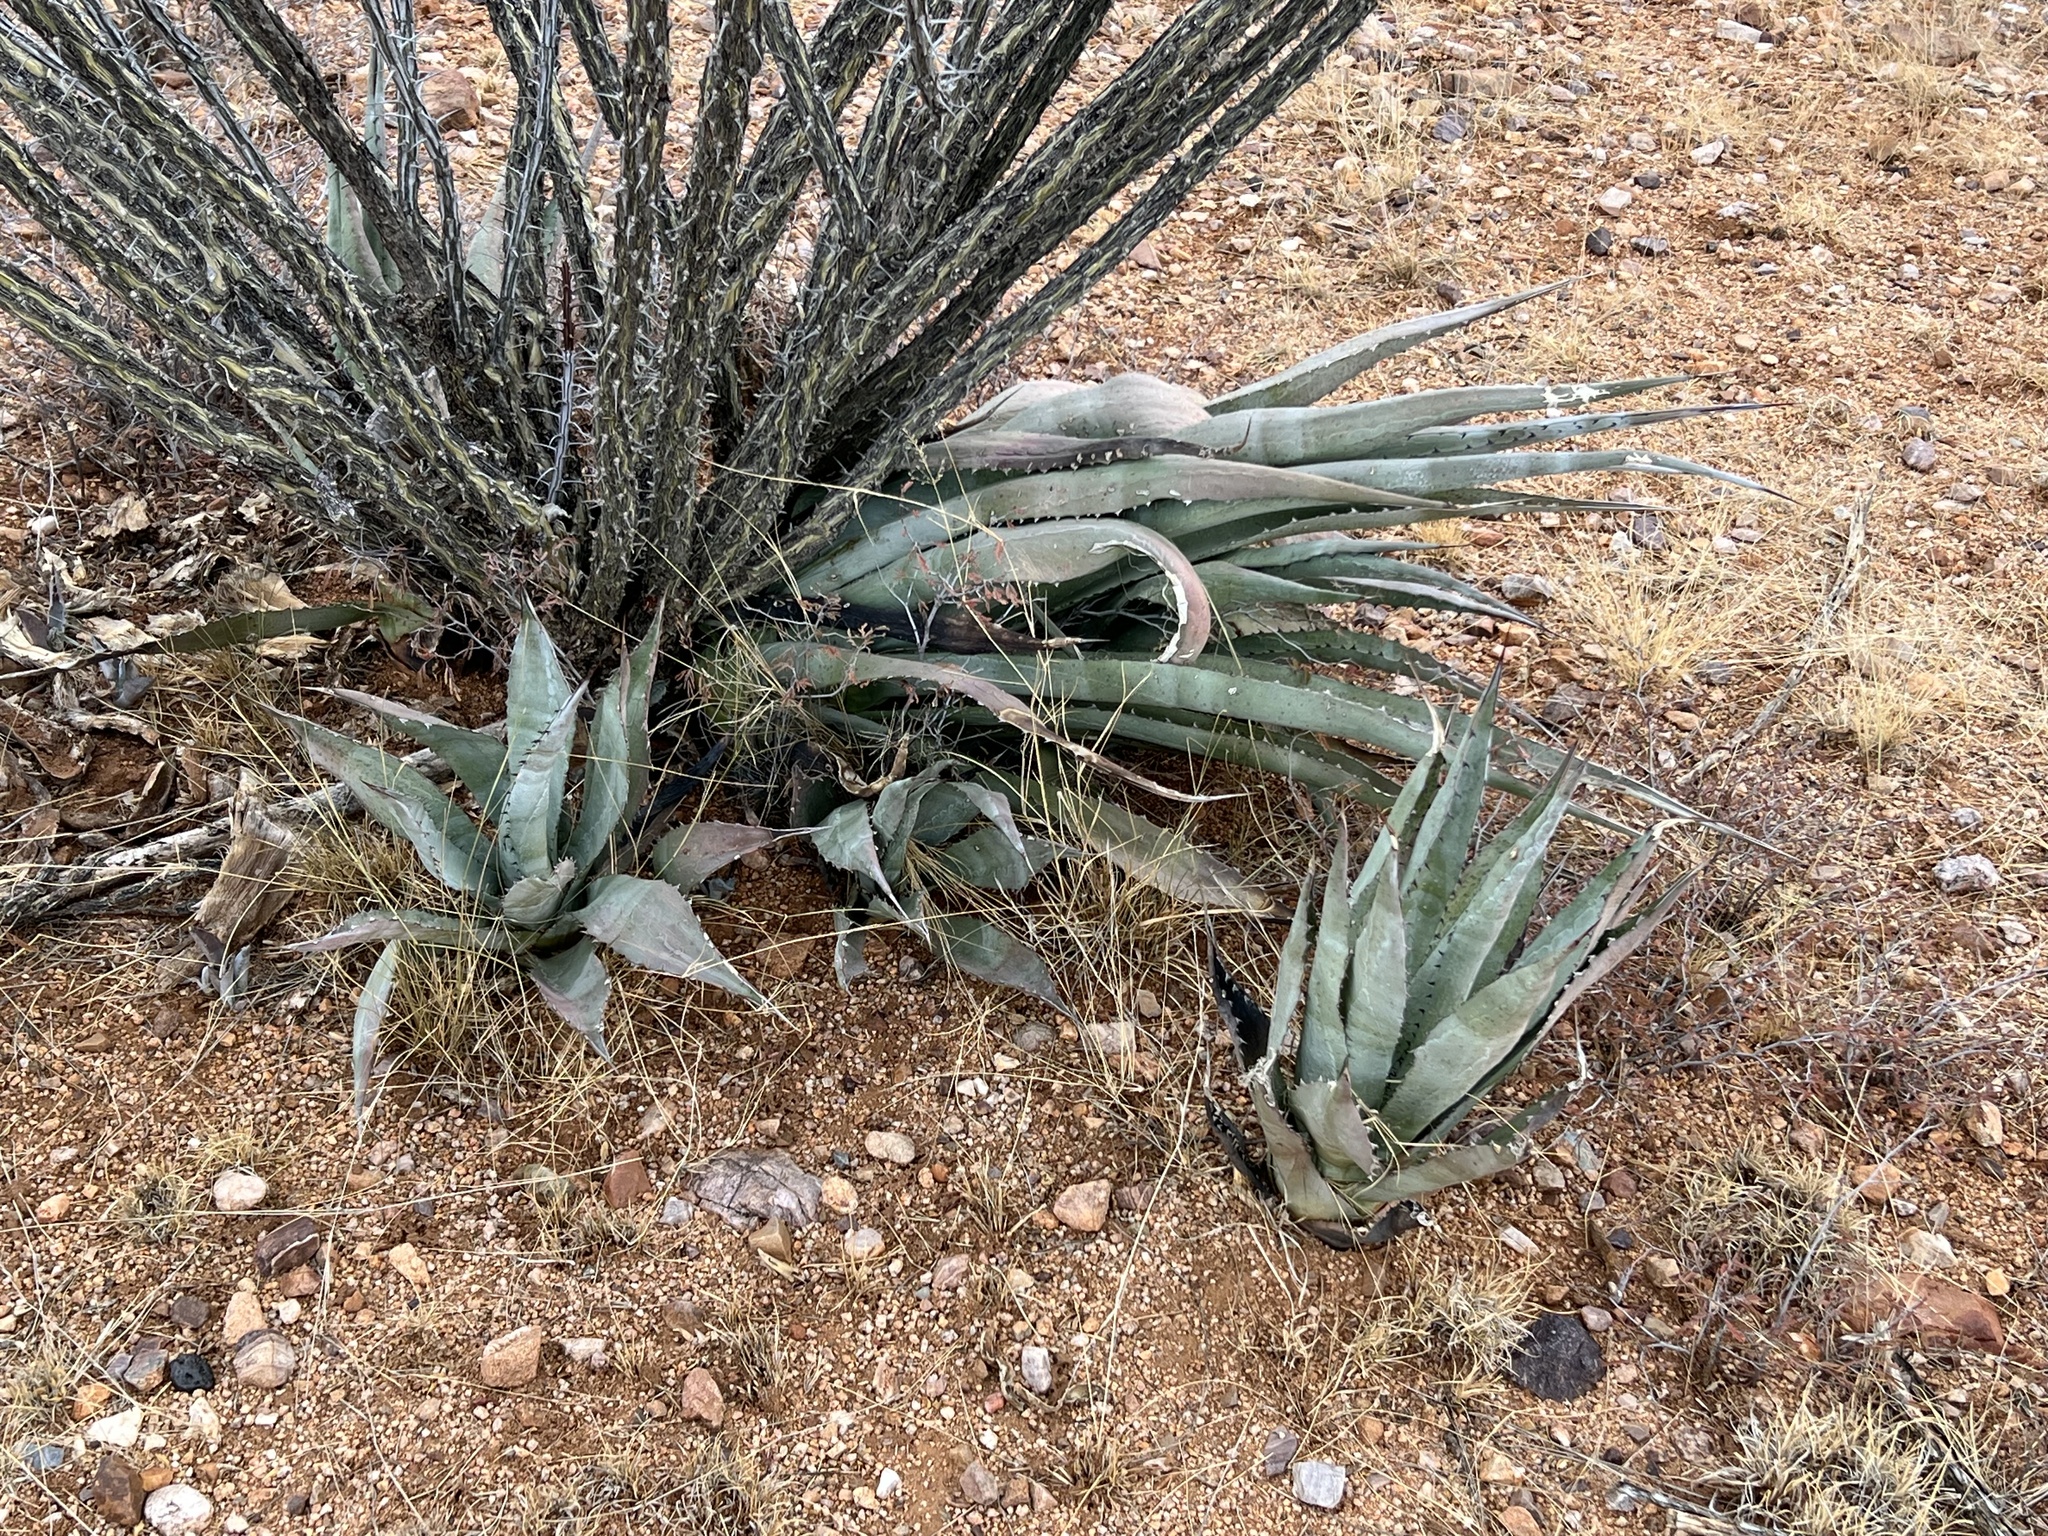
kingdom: Plantae
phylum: Tracheophyta
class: Liliopsida
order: Asparagales
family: Asparagaceae
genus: Agave
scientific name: Agave palmeri
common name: Palmer agave
